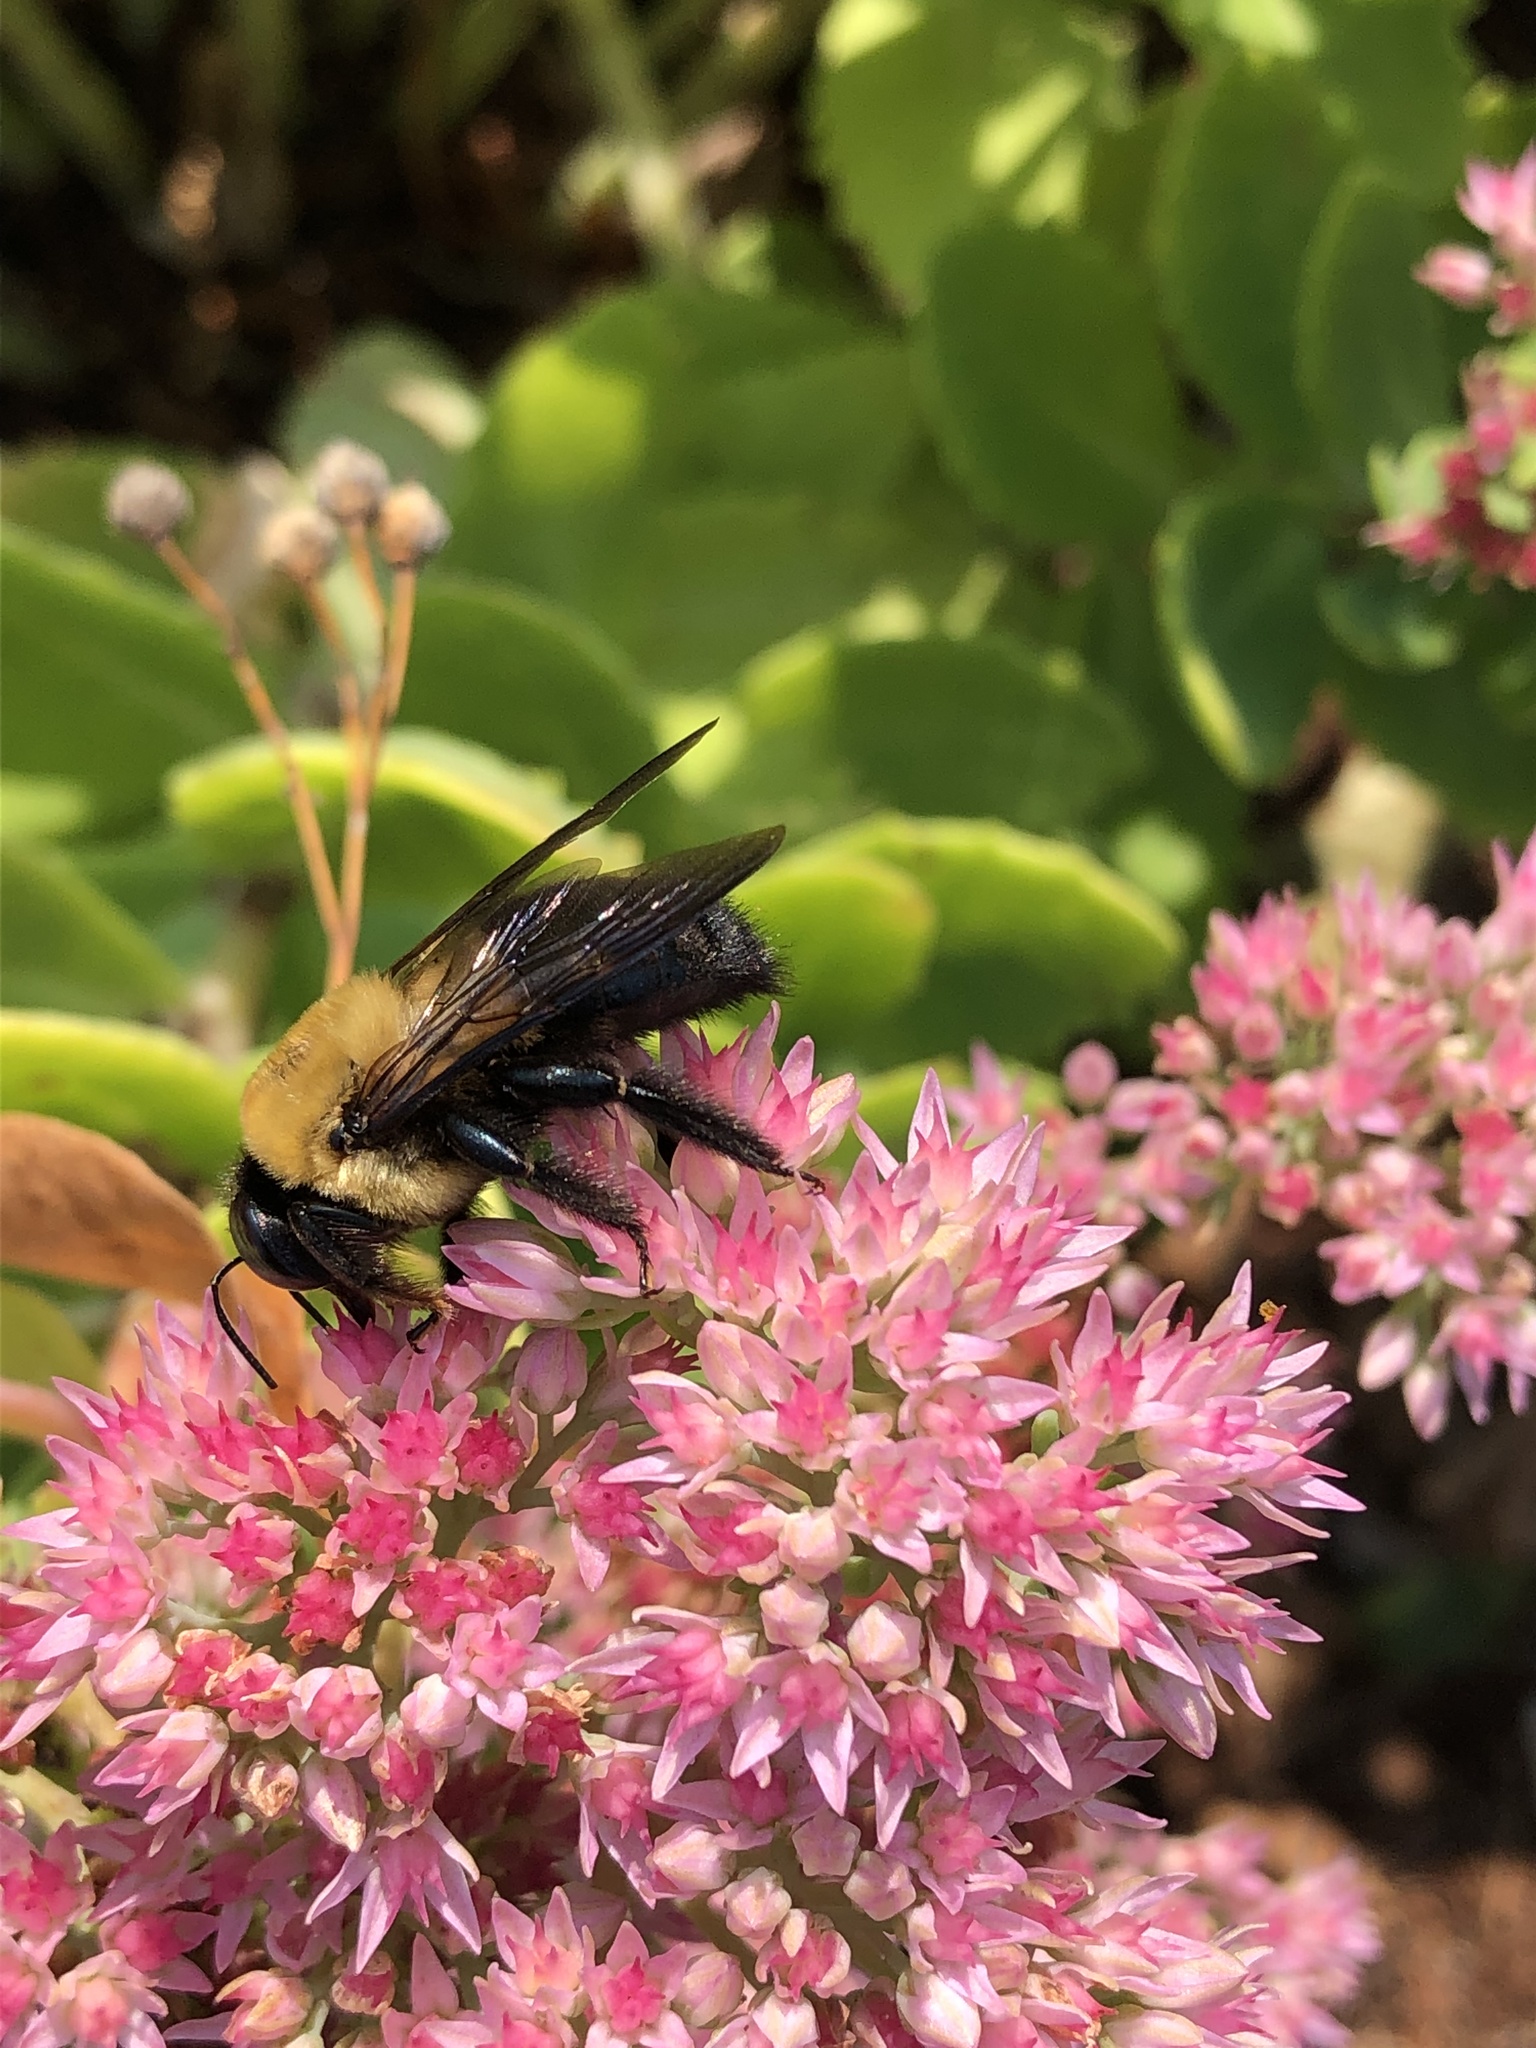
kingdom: Animalia
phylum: Arthropoda
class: Insecta
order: Hymenoptera
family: Apidae
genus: Xylocopa
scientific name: Xylocopa virginica
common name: Carpenter bee
